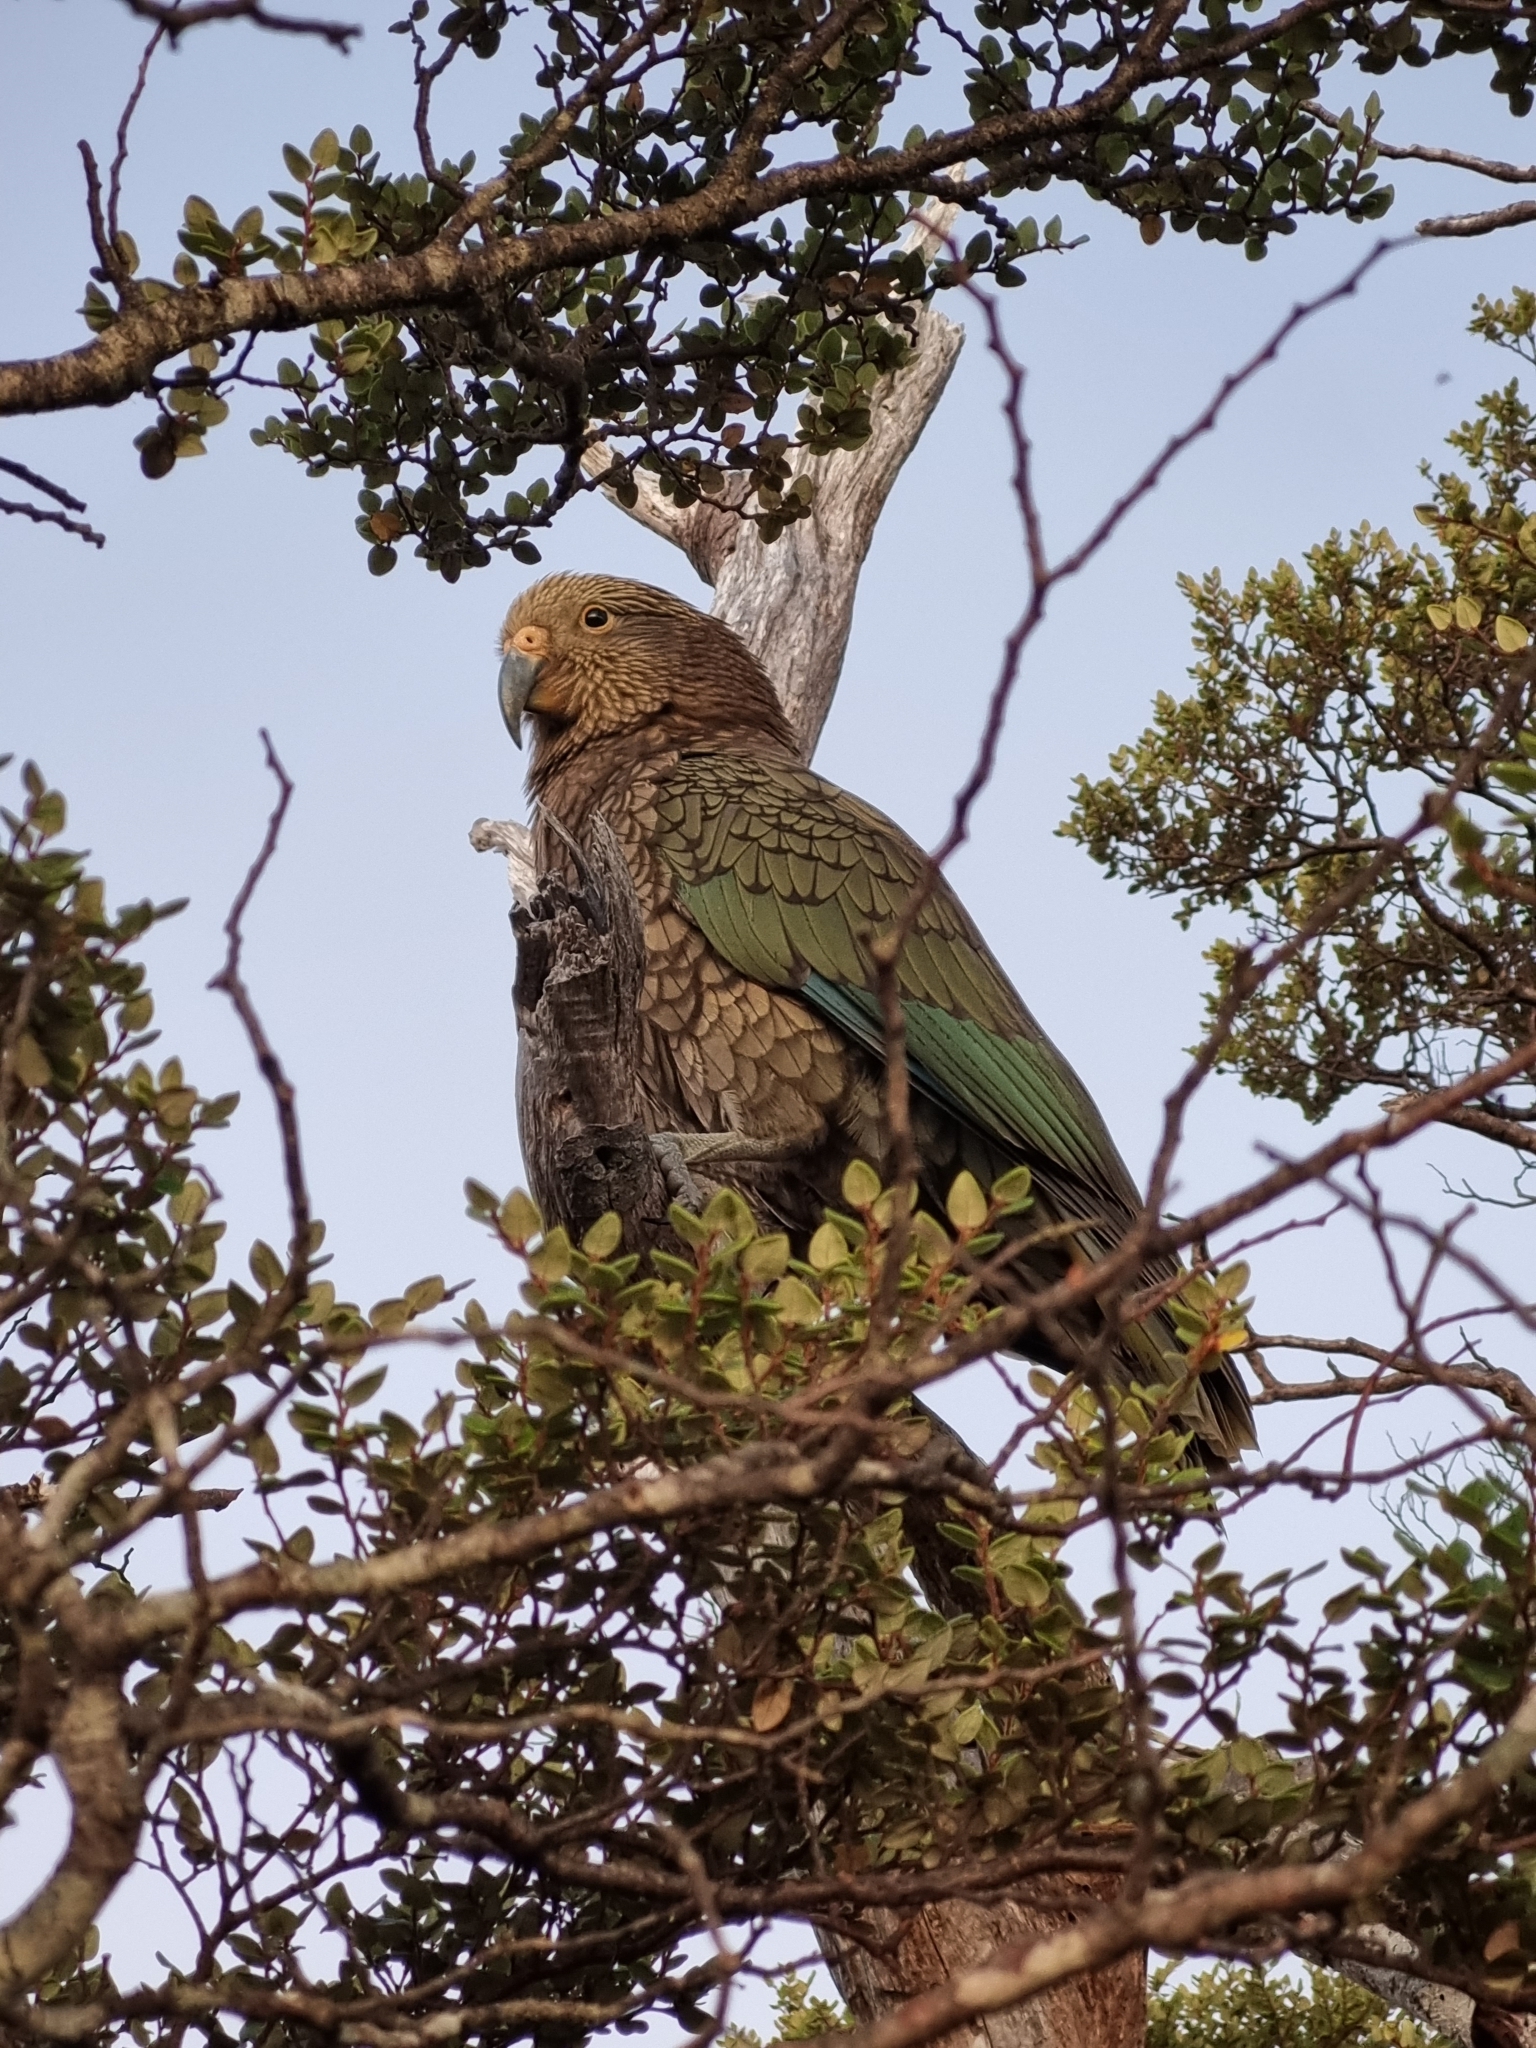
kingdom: Animalia
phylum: Chordata
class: Aves
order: Psittaciformes
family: Psittacidae
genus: Nestor
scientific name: Nestor notabilis
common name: Kea
